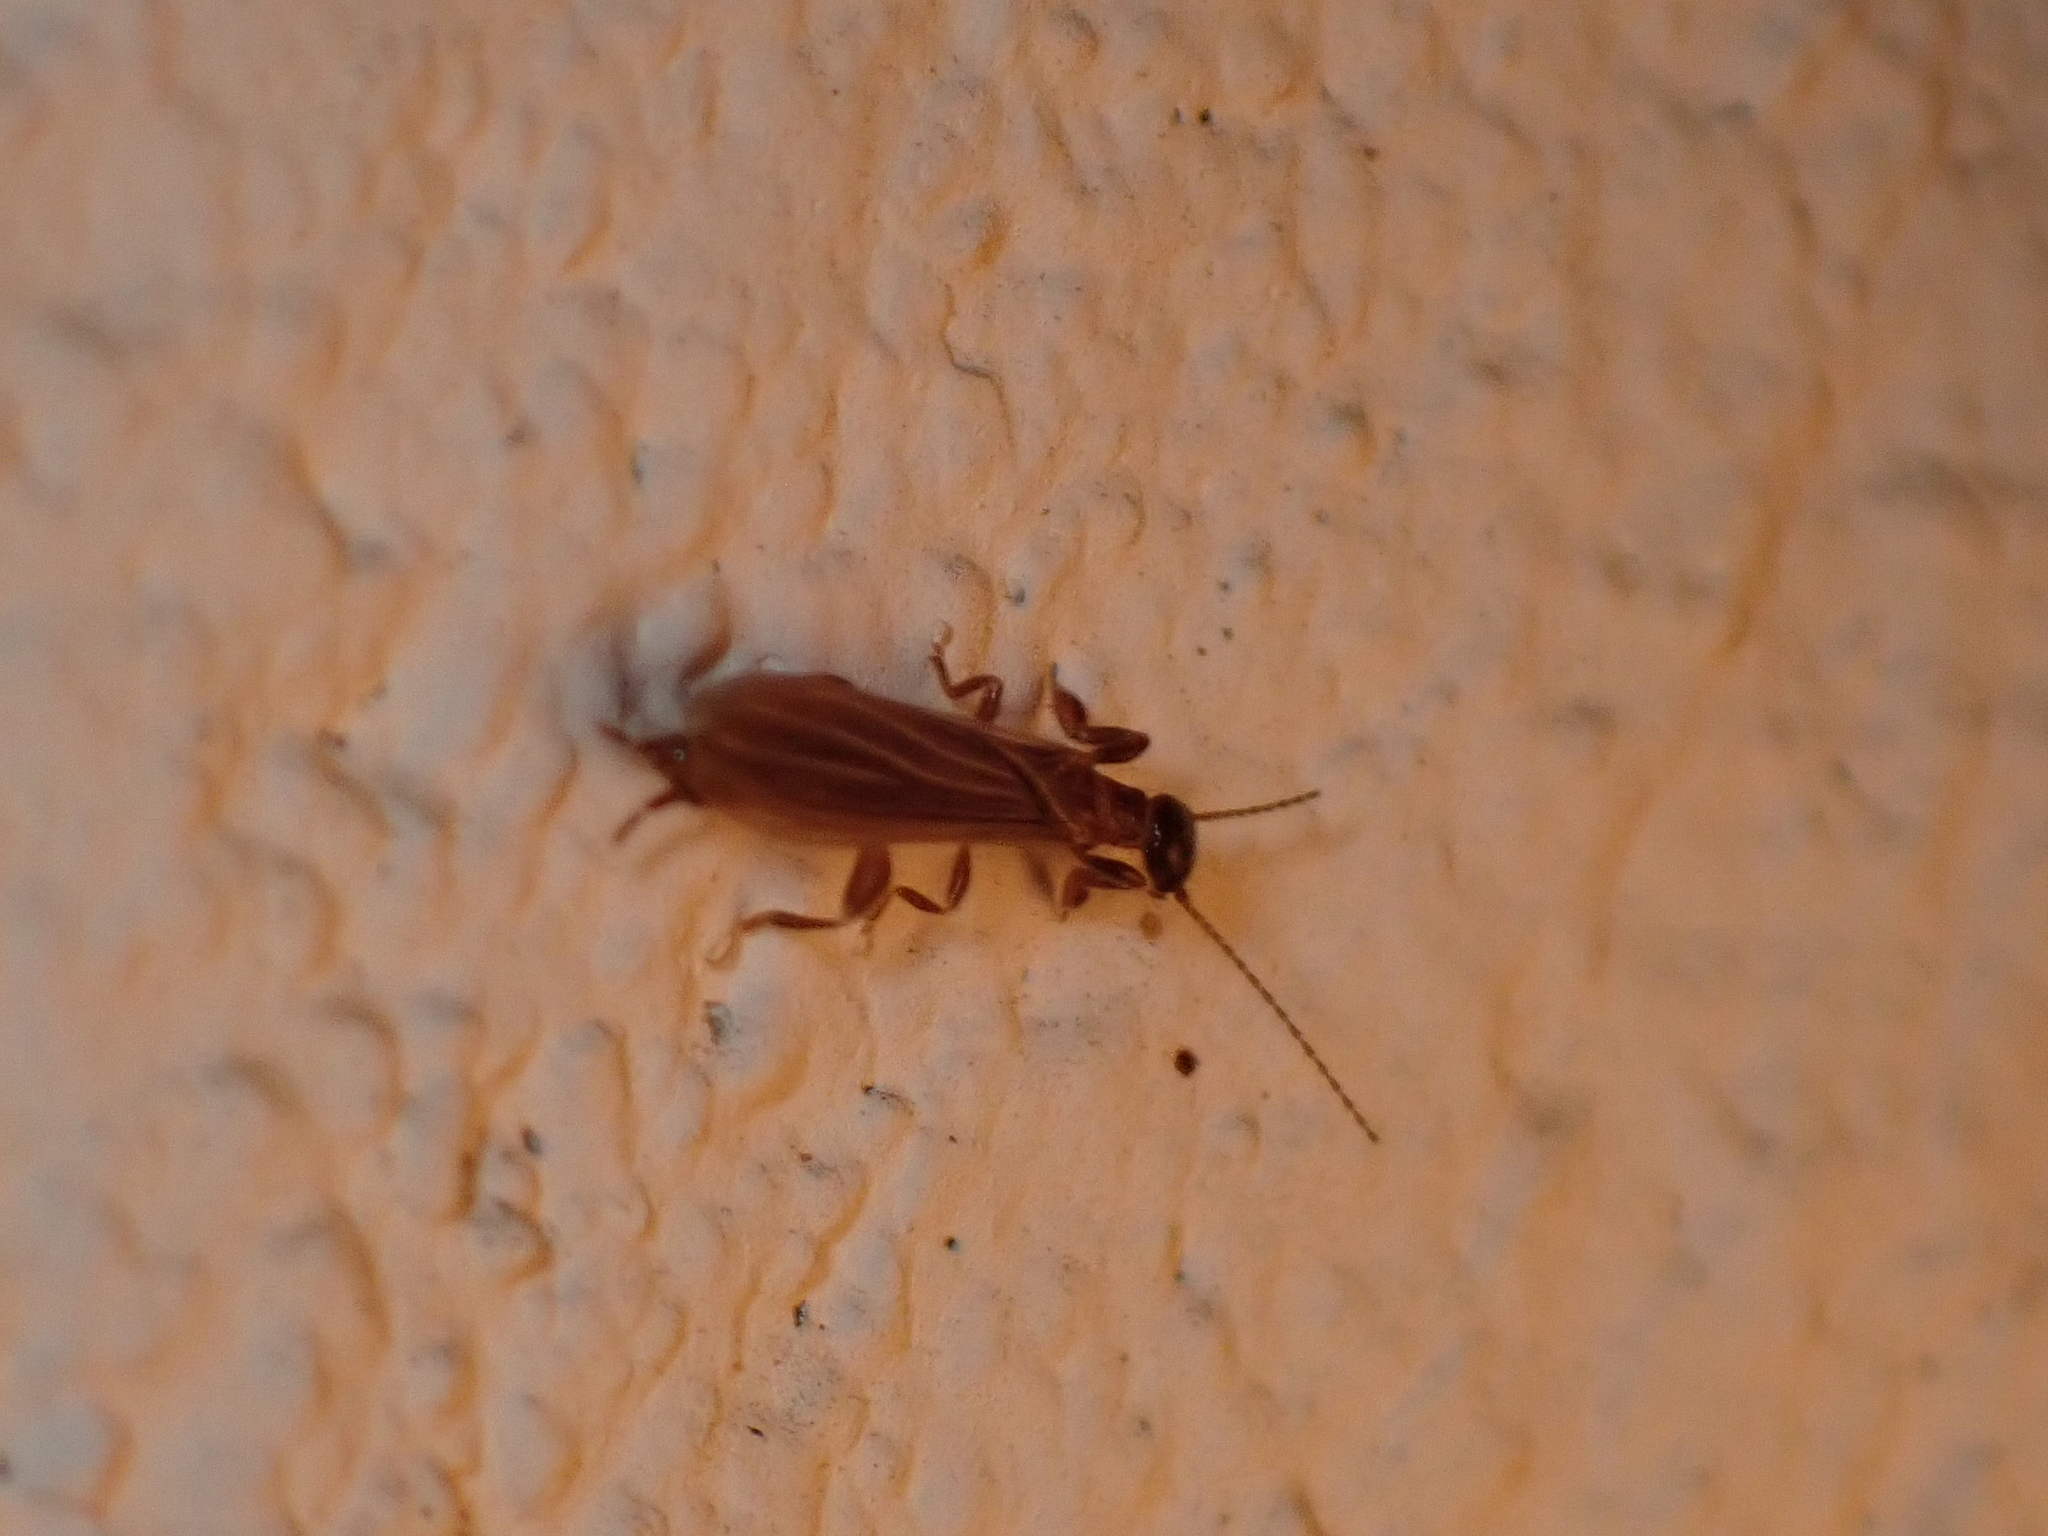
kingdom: Animalia
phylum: Arthropoda
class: Insecta
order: Embioptera
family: Oligotomidae
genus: Oligotoma
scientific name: Oligotoma nigra
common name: Black webspinner
